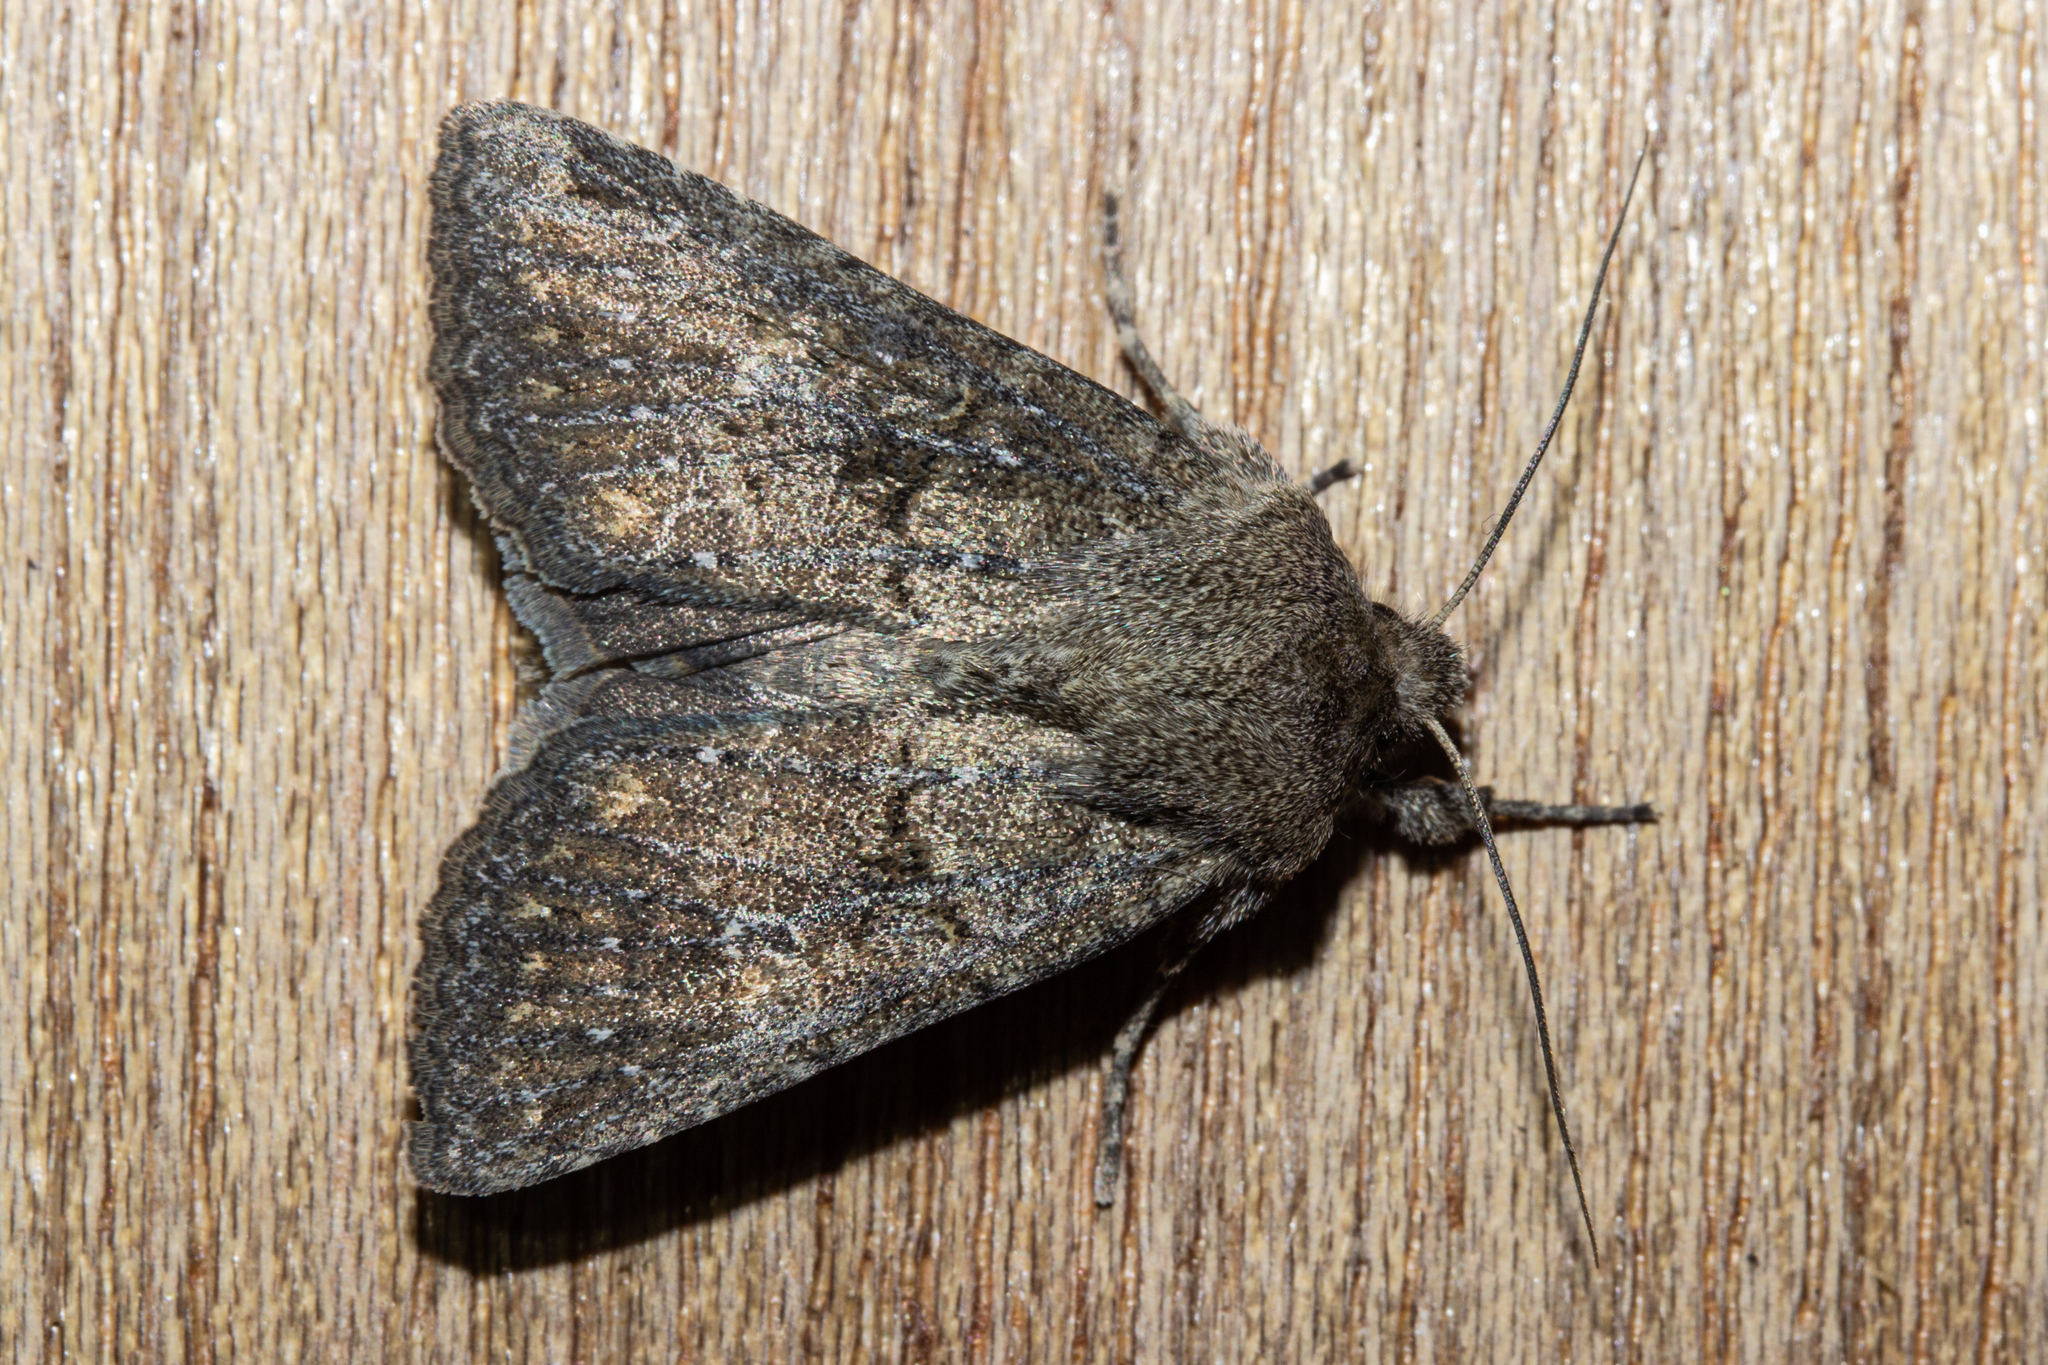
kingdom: Animalia
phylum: Arthropoda
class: Insecta
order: Lepidoptera
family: Noctuidae
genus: Physetica
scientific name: Physetica
